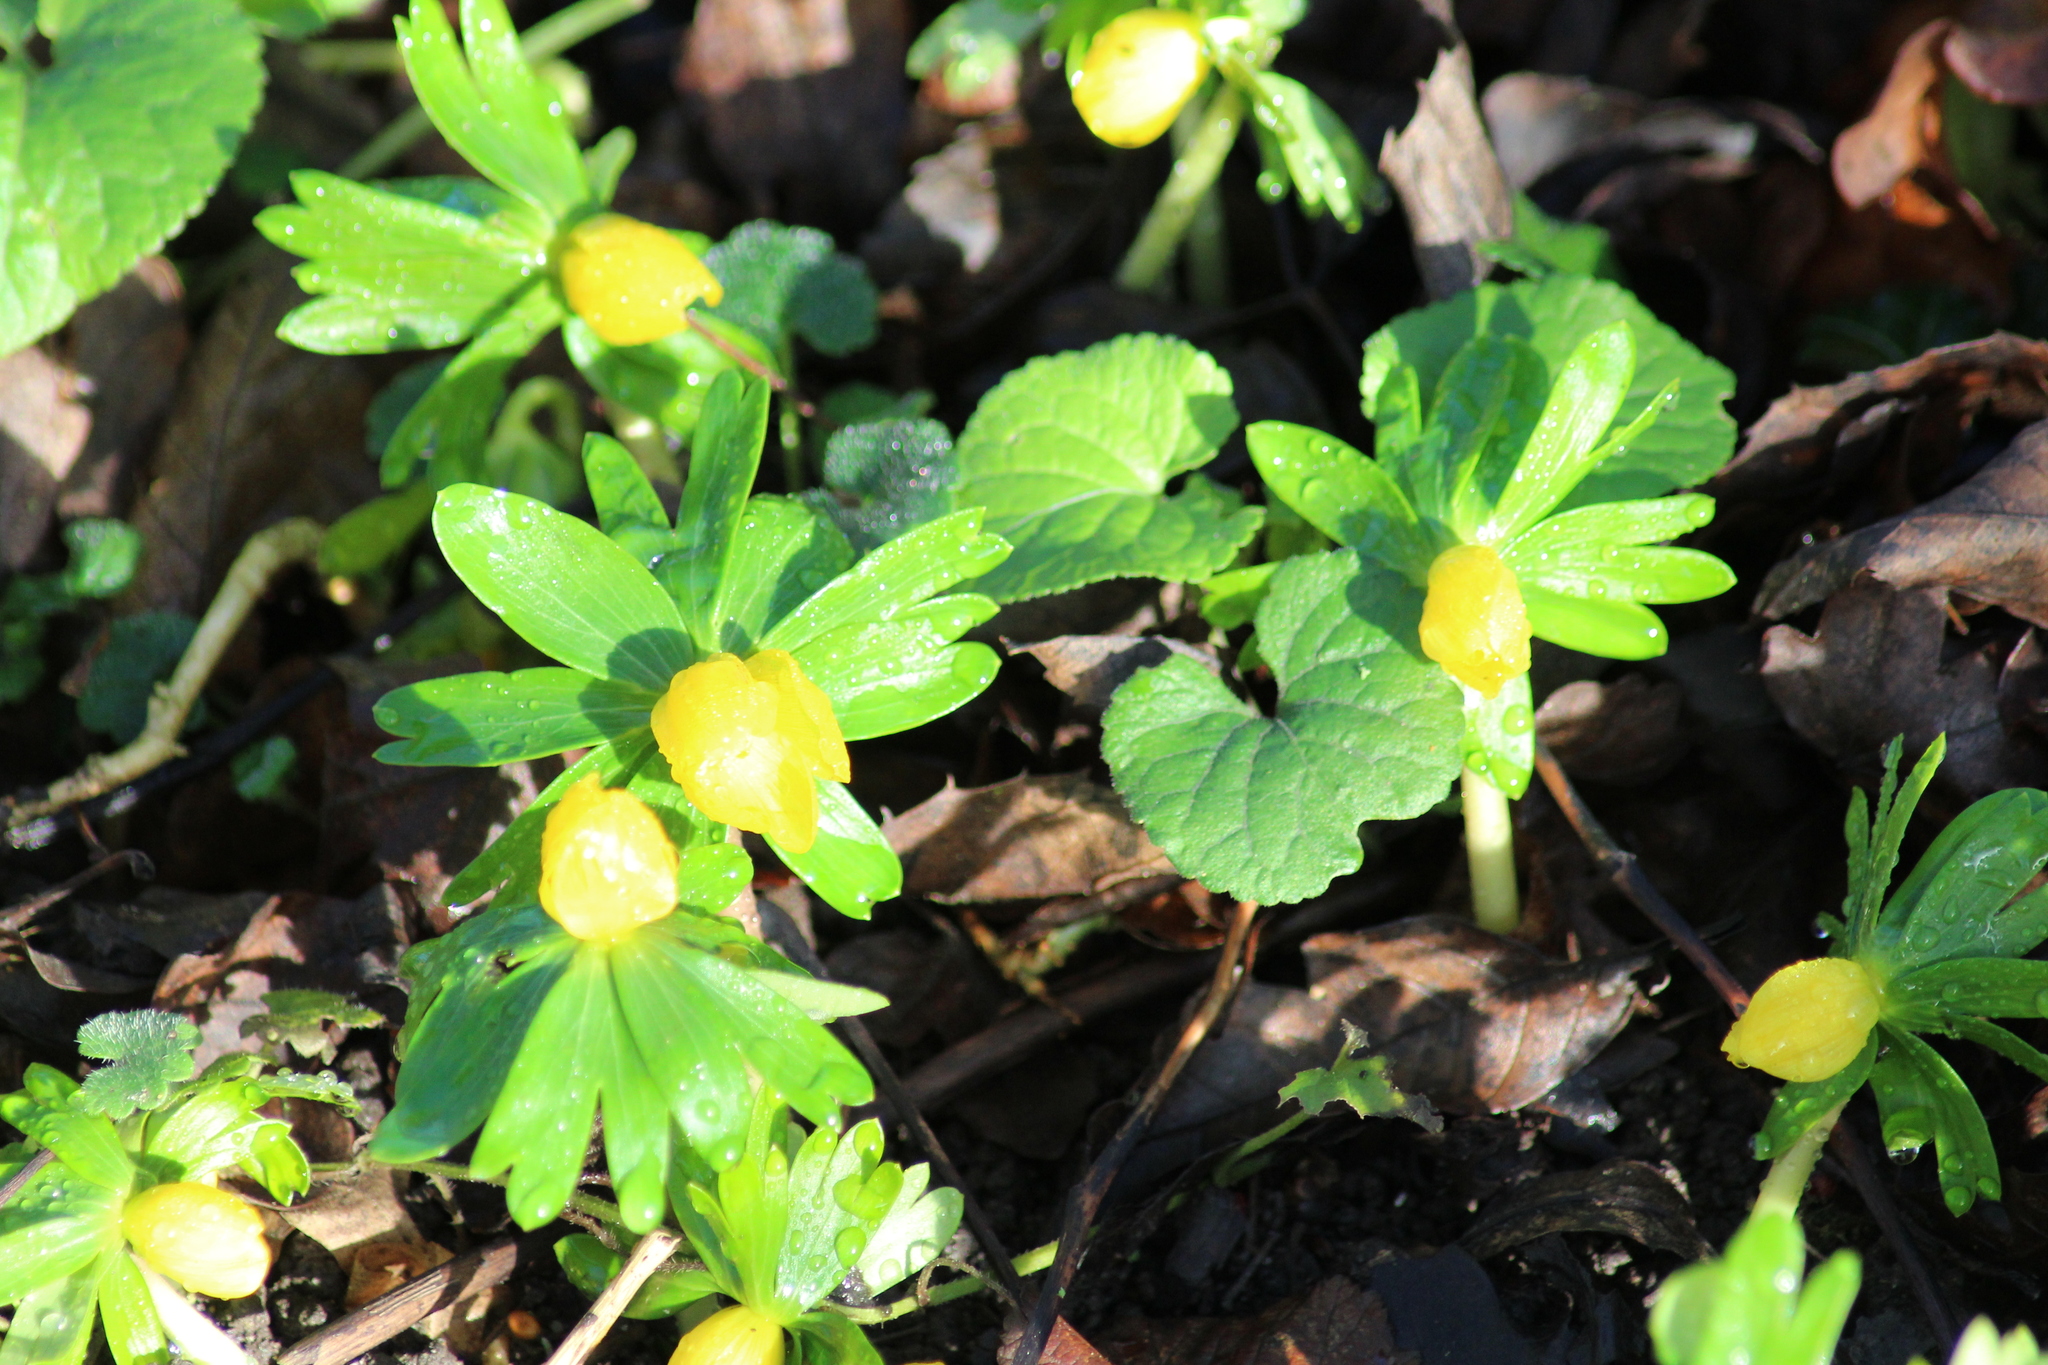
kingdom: Plantae
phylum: Tracheophyta
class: Magnoliopsida
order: Ranunculales
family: Ranunculaceae
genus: Eranthis
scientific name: Eranthis hyemalis
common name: Winter aconite
